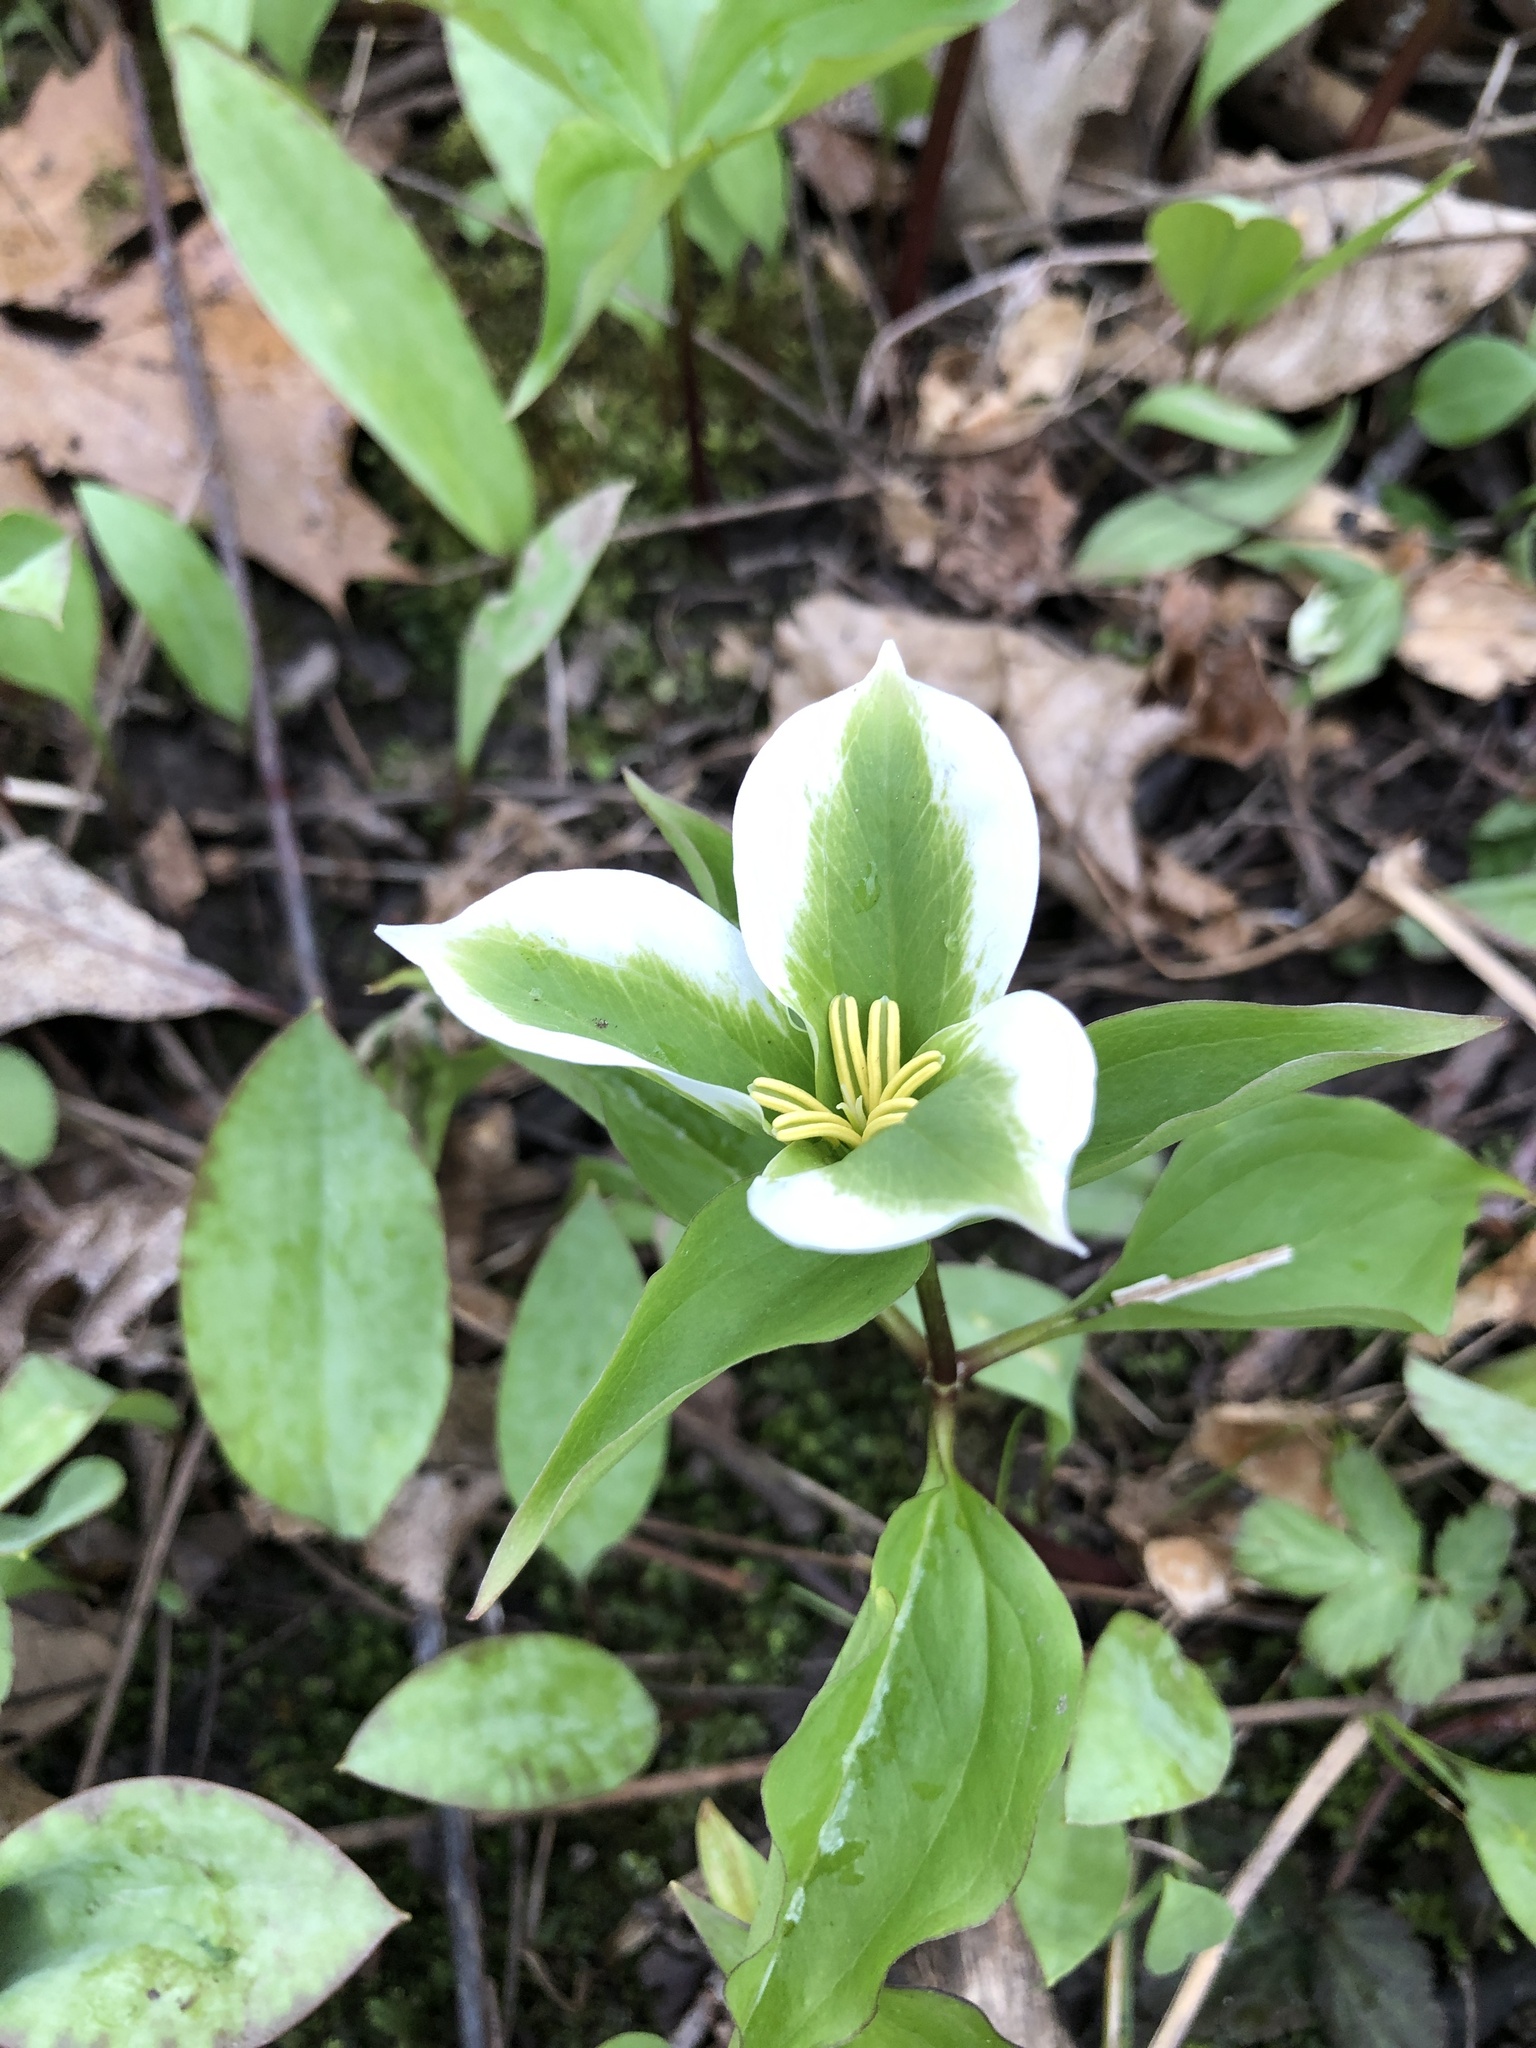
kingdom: Plantae
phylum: Tracheophyta
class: Liliopsida
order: Liliales
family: Melanthiaceae
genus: Trillium
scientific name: Trillium grandiflorum
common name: Great white trillium
